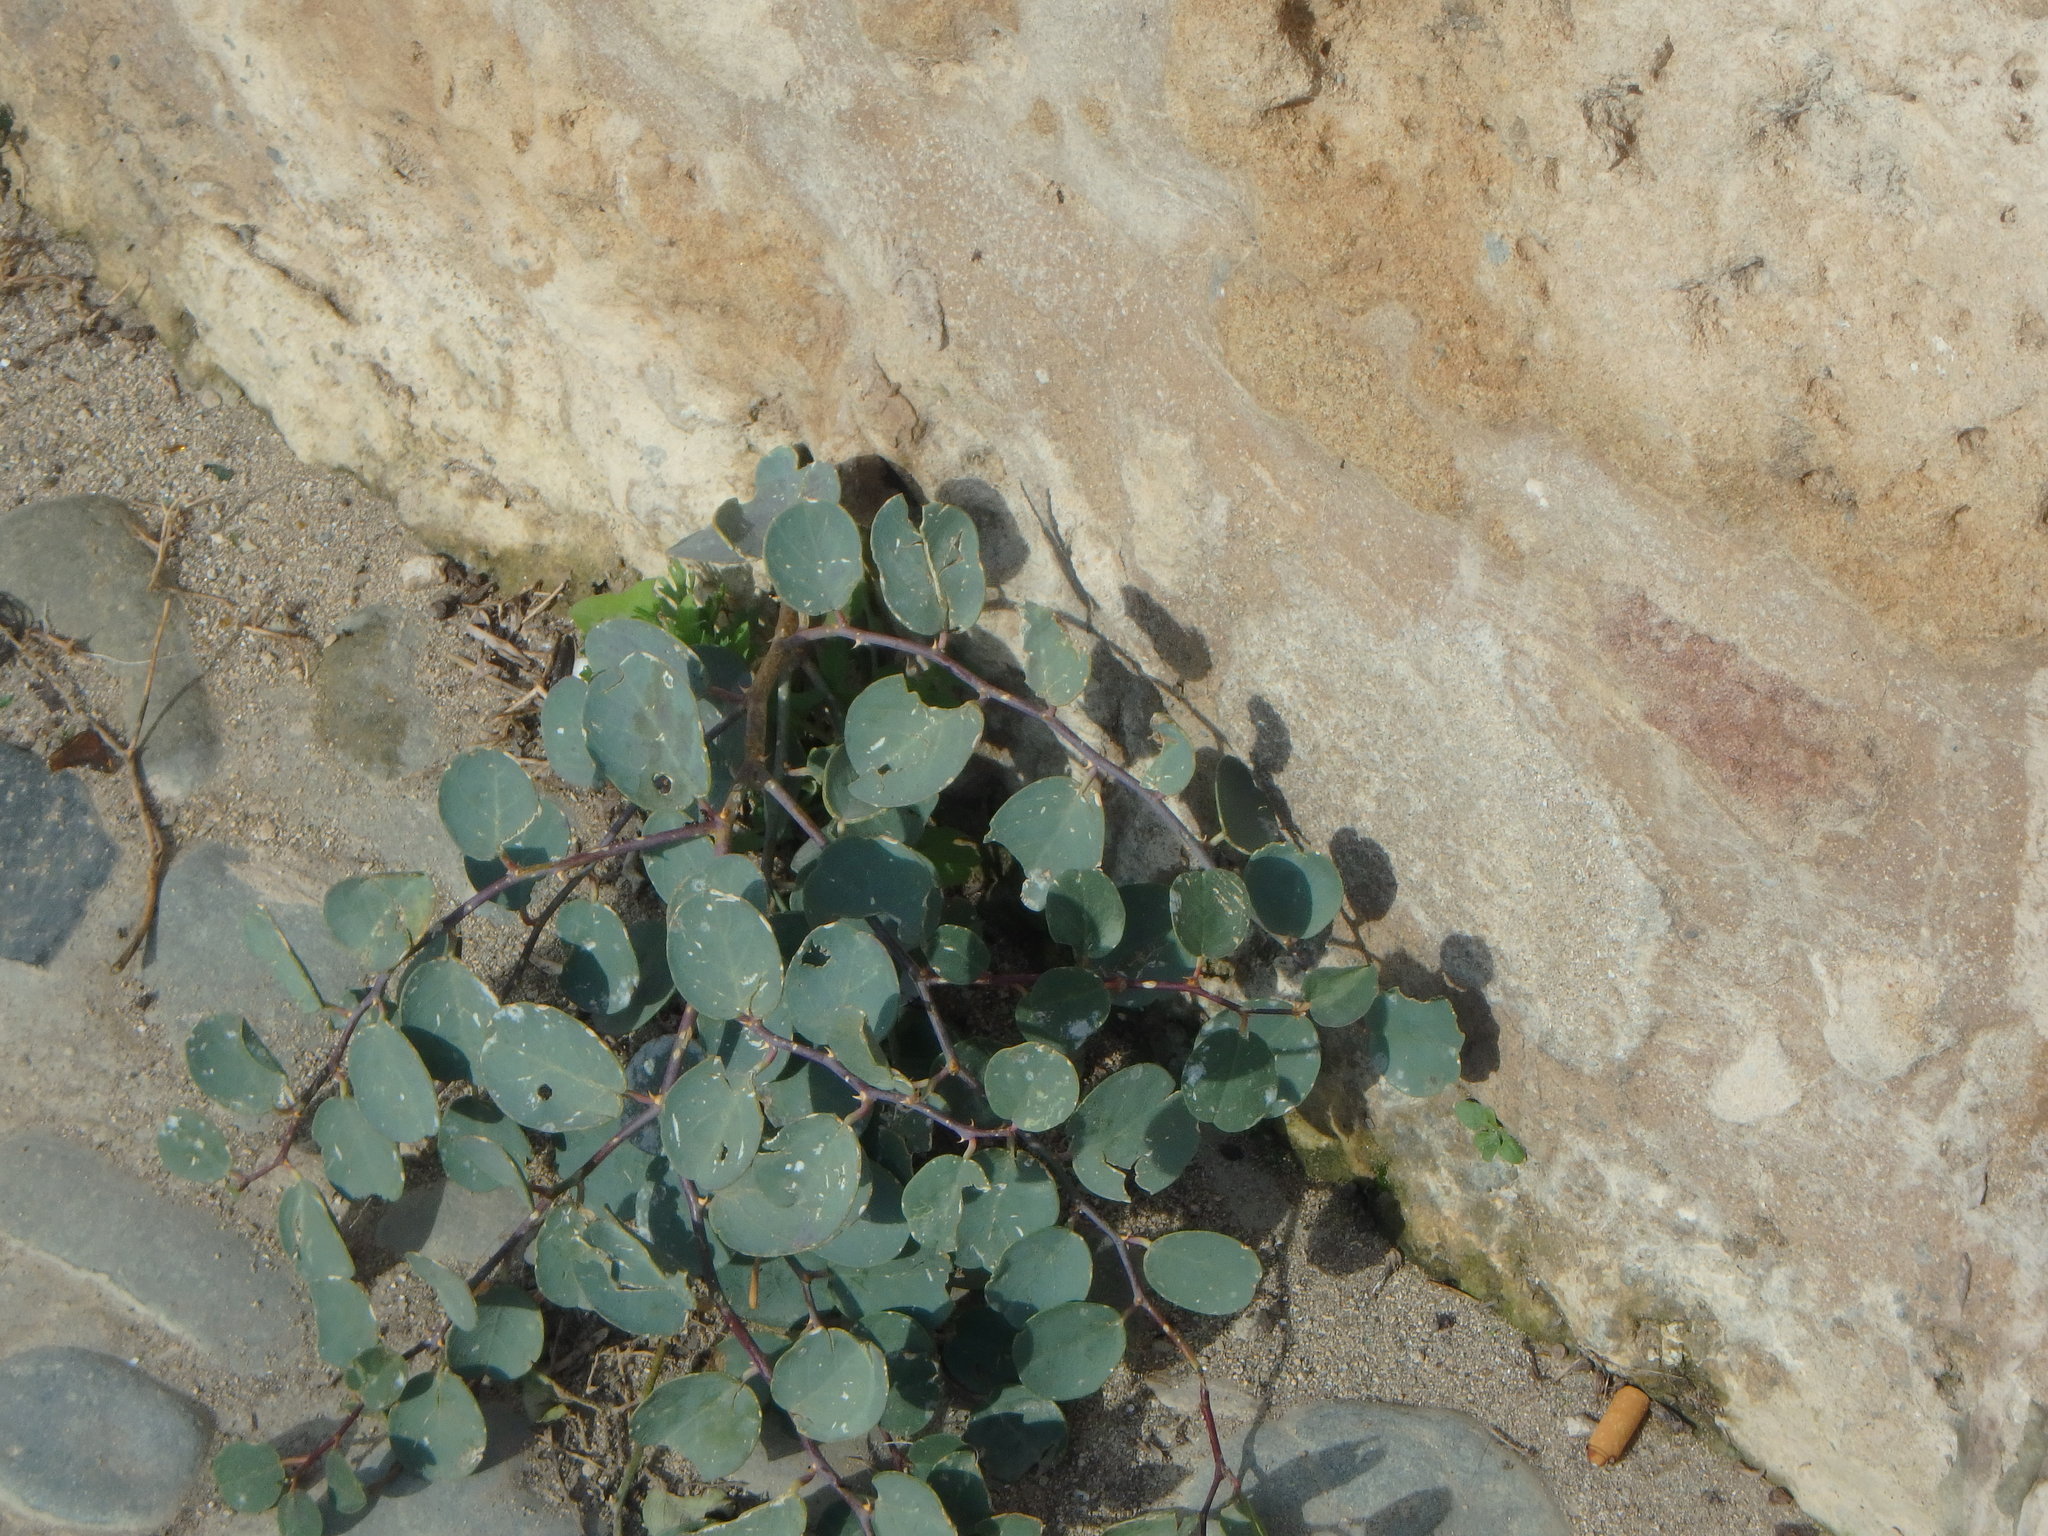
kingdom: Plantae
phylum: Tracheophyta
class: Magnoliopsida
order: Brassicales
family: Capparaceae
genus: Capparis
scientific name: Capparis spinosa
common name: Caper
